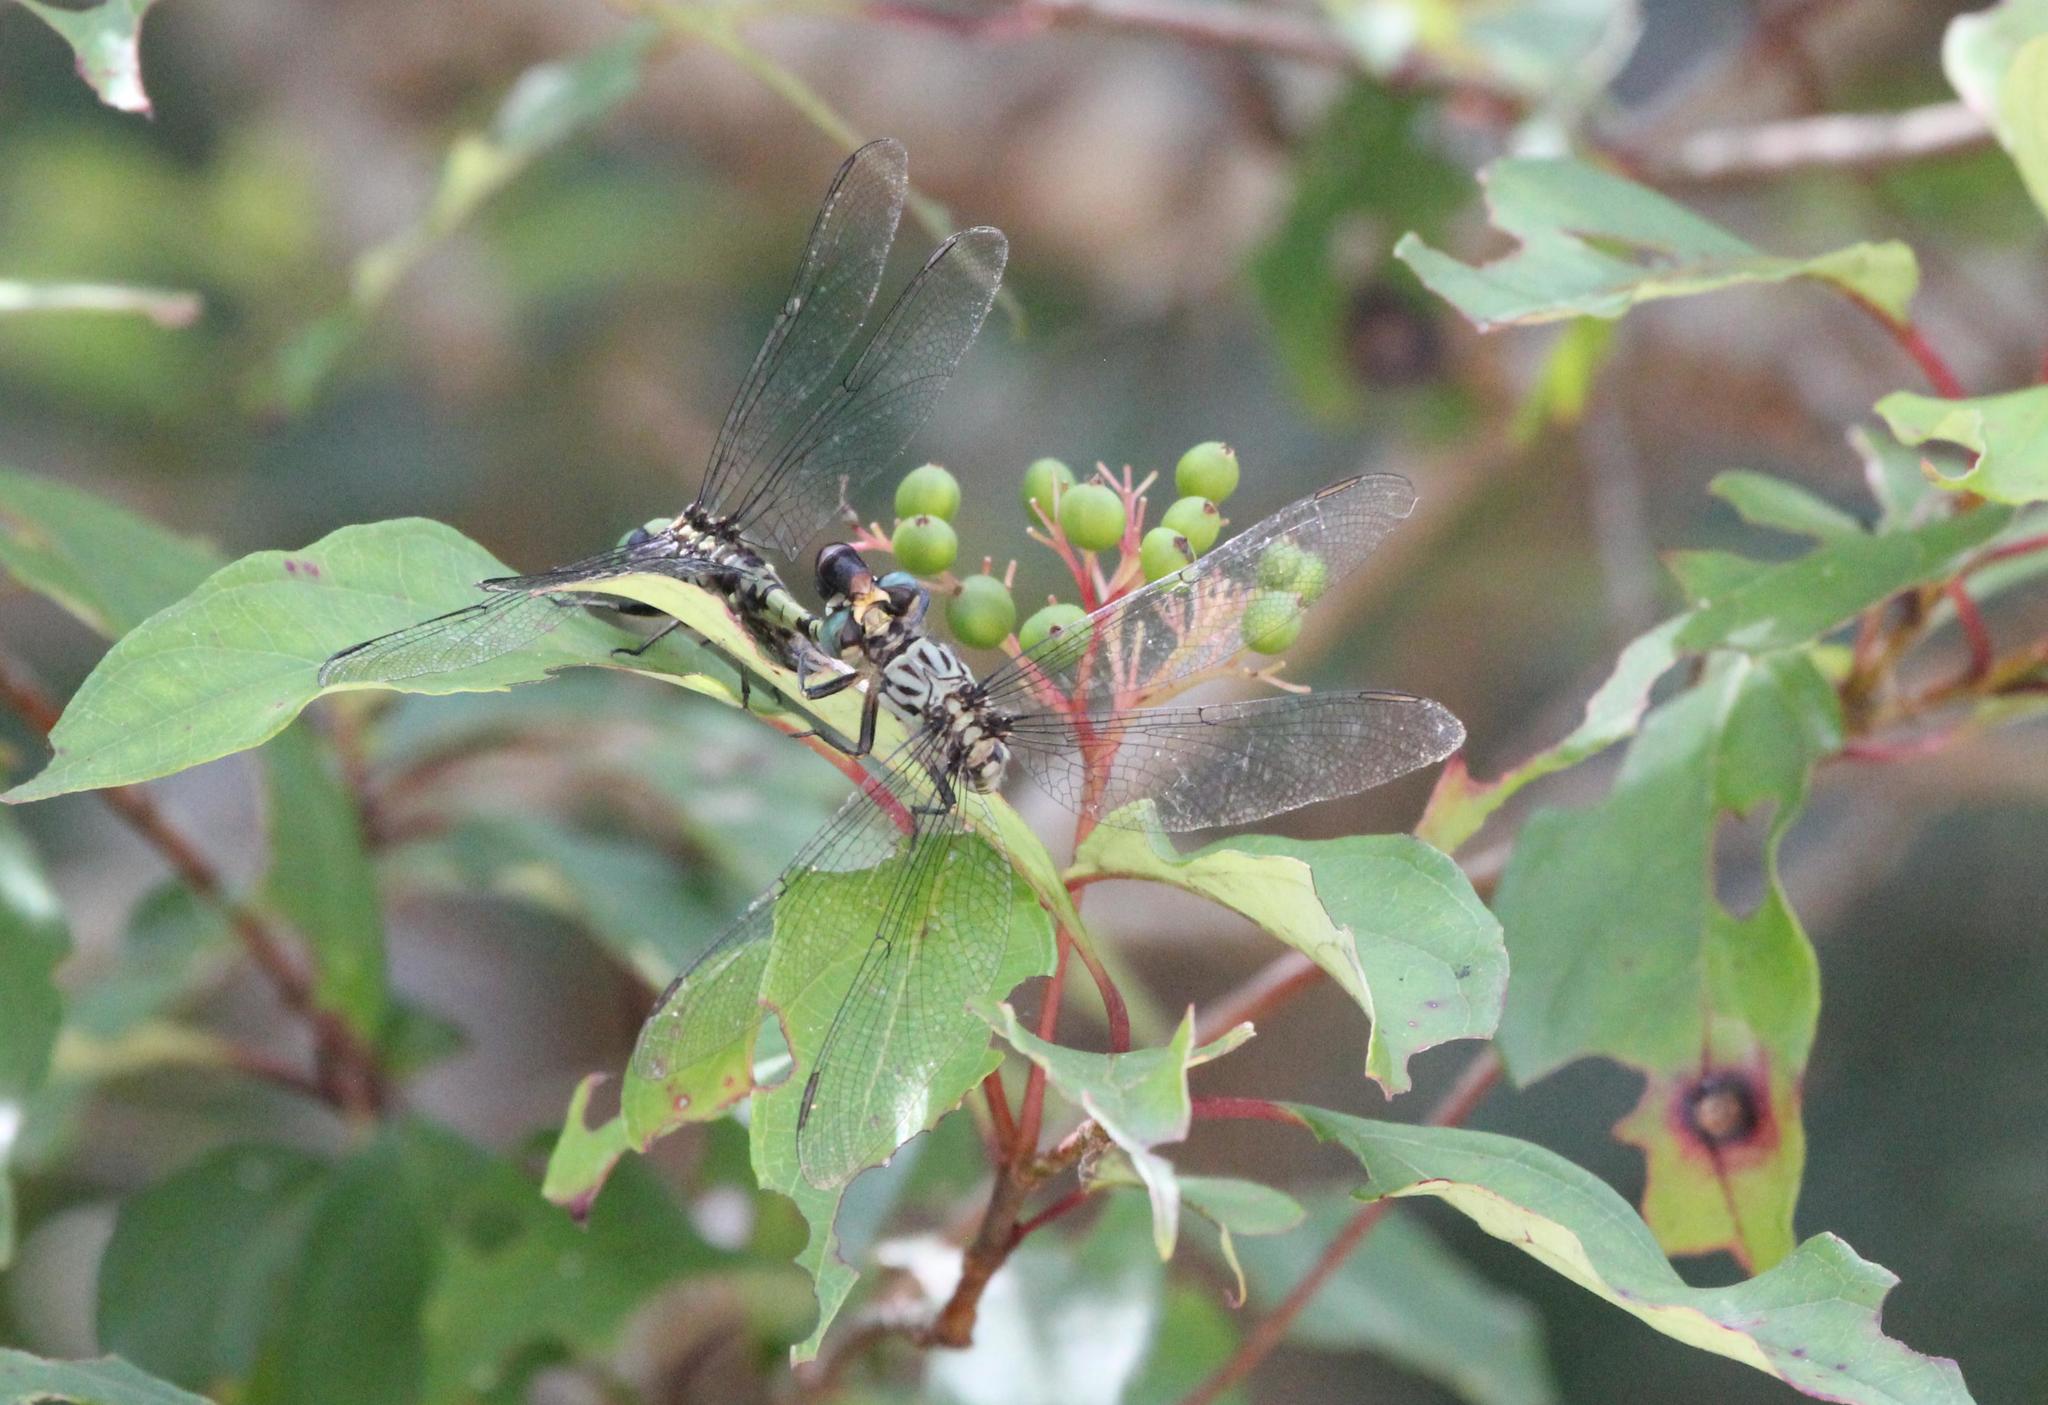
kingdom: Animalia
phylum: Arthropoda
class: Insecta
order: Odonata
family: Gomphidae
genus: Arigomphus
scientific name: Arigomphus maxwelli
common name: Bayou clubtail
